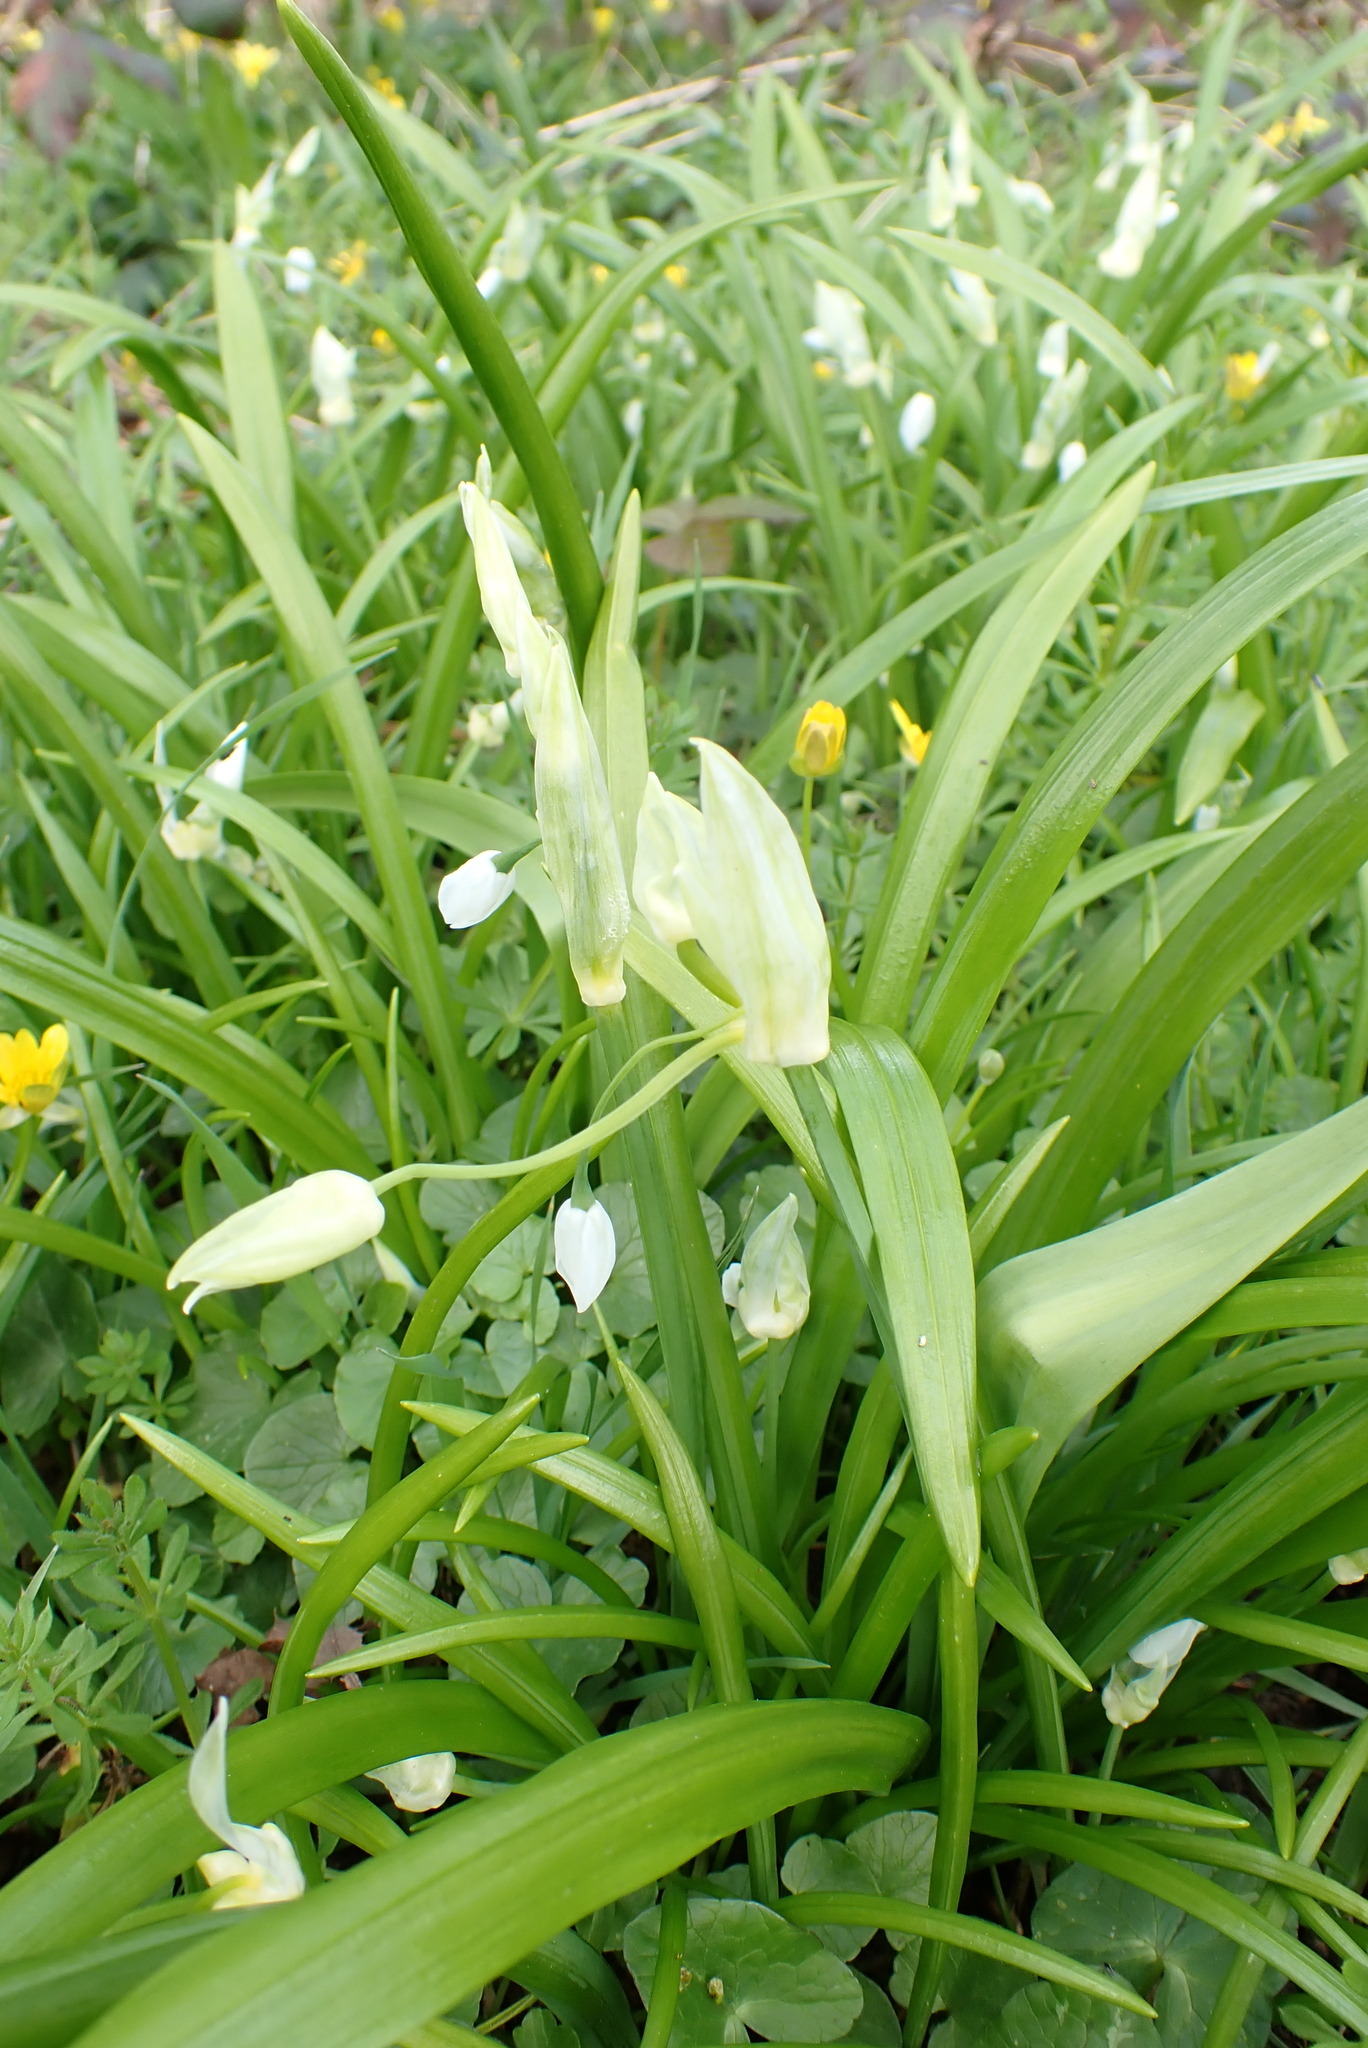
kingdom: Plantae
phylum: Tracheophyta
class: Liliopsida
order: Asparagales
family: Amaryllidaceae
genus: Allium
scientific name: Allium paradoxum
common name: Few-flowered garlic
